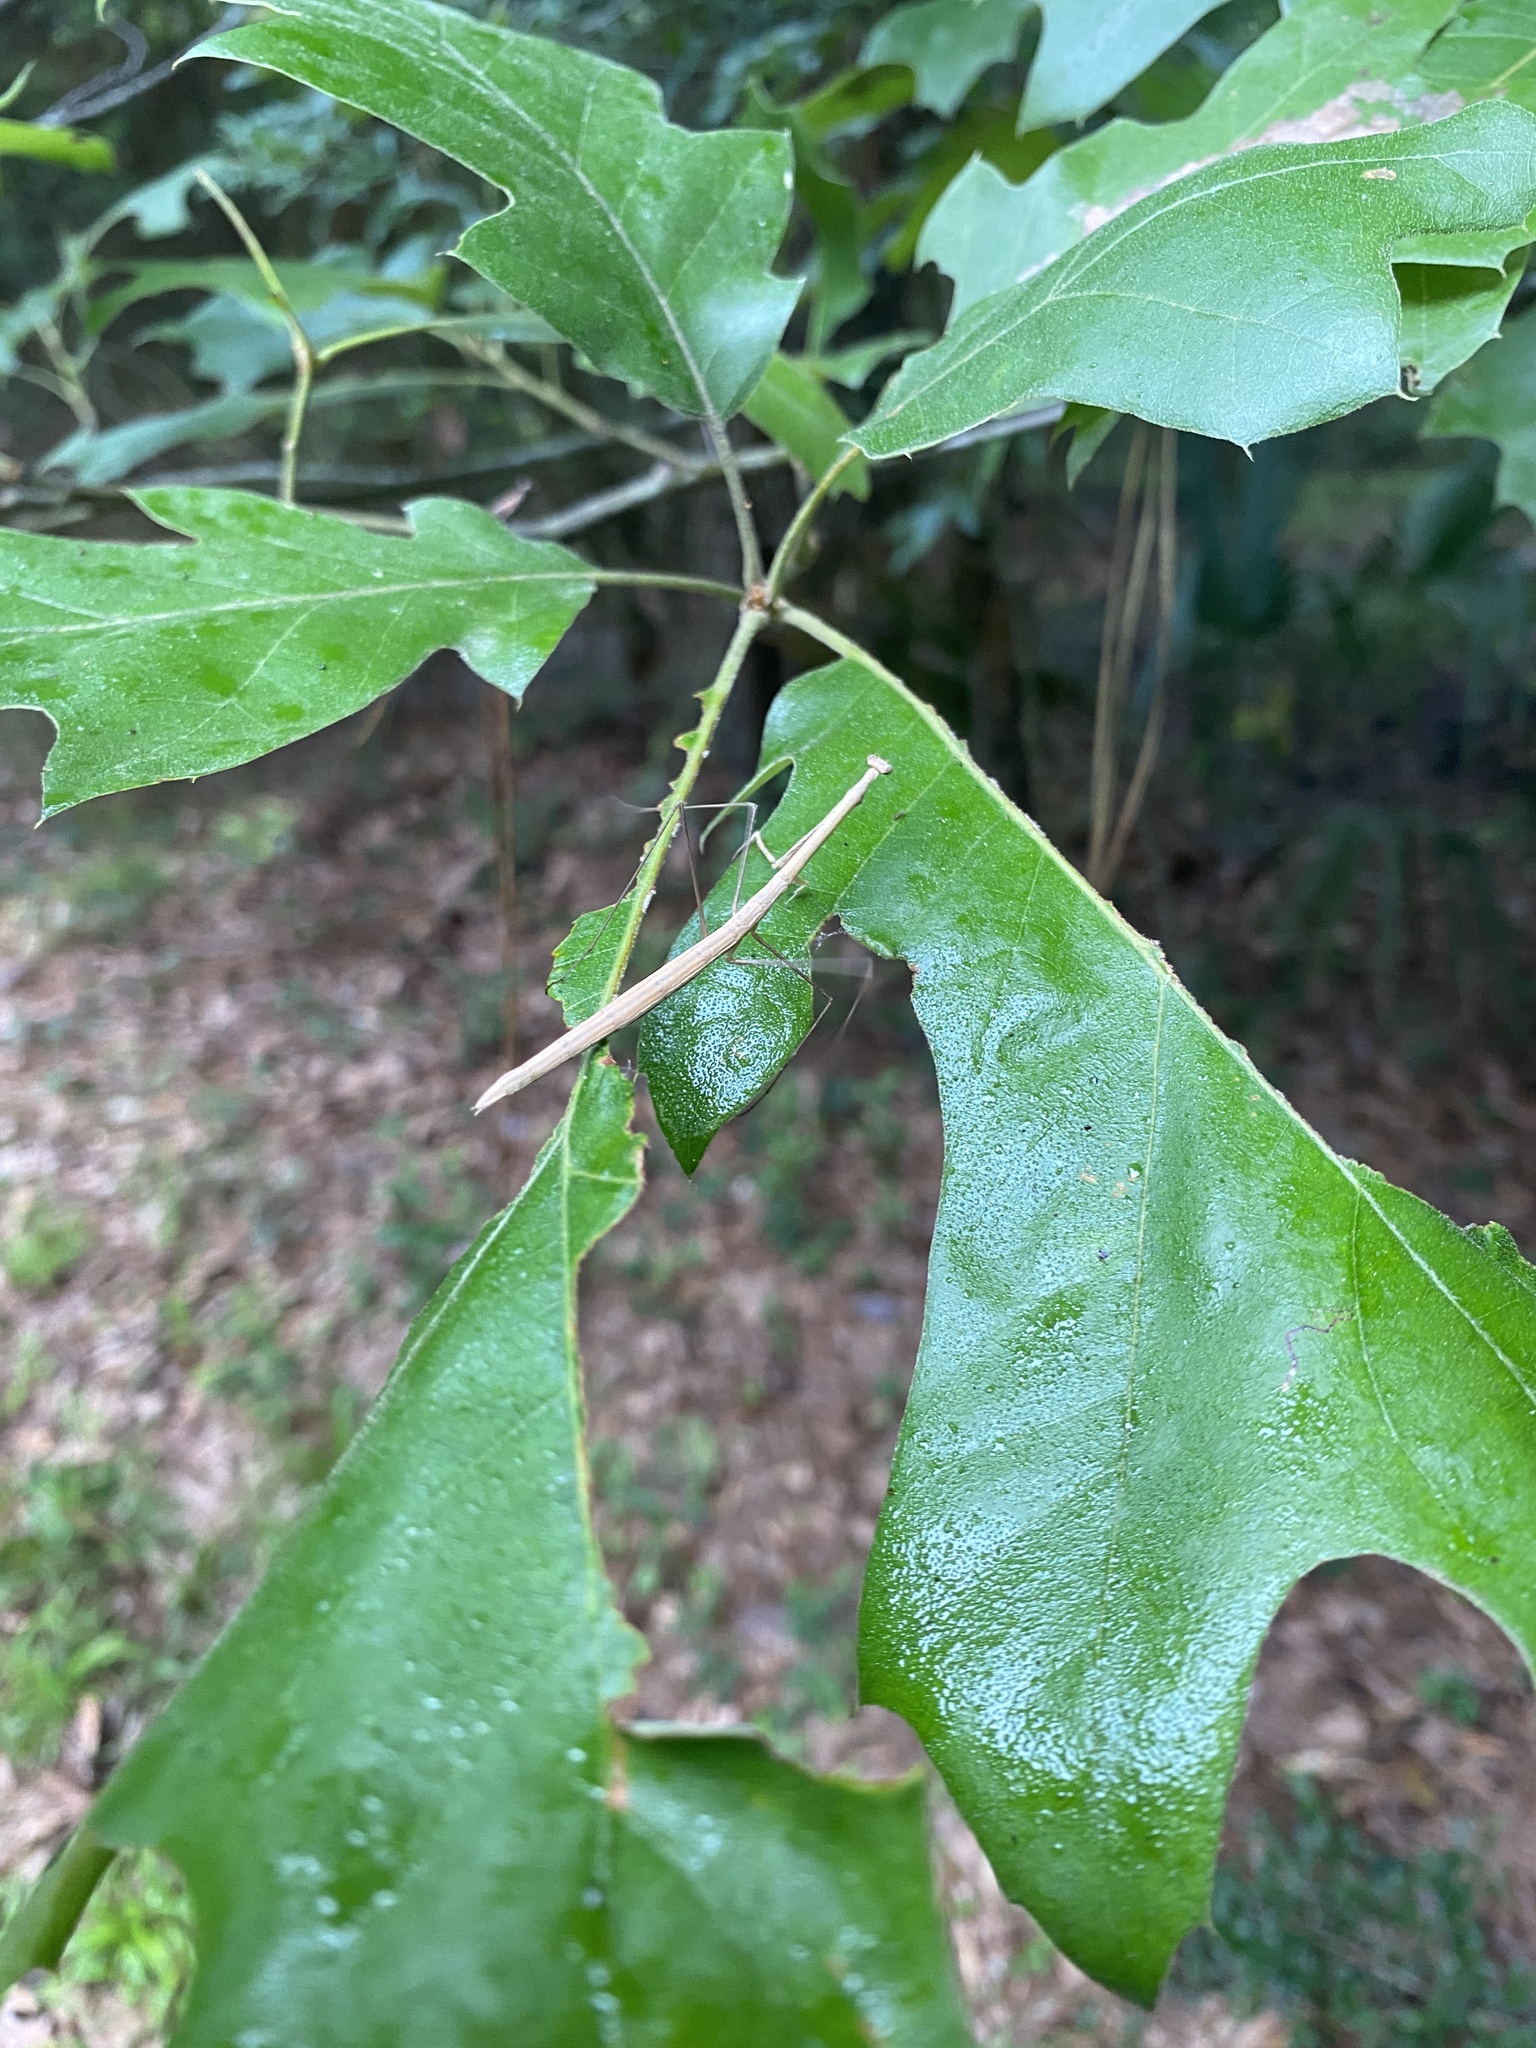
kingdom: Animalia
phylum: Arthropoda
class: Insecta
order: Mantodea
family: Thespidae
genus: Thesprotia
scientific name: Thesprotia graminis
